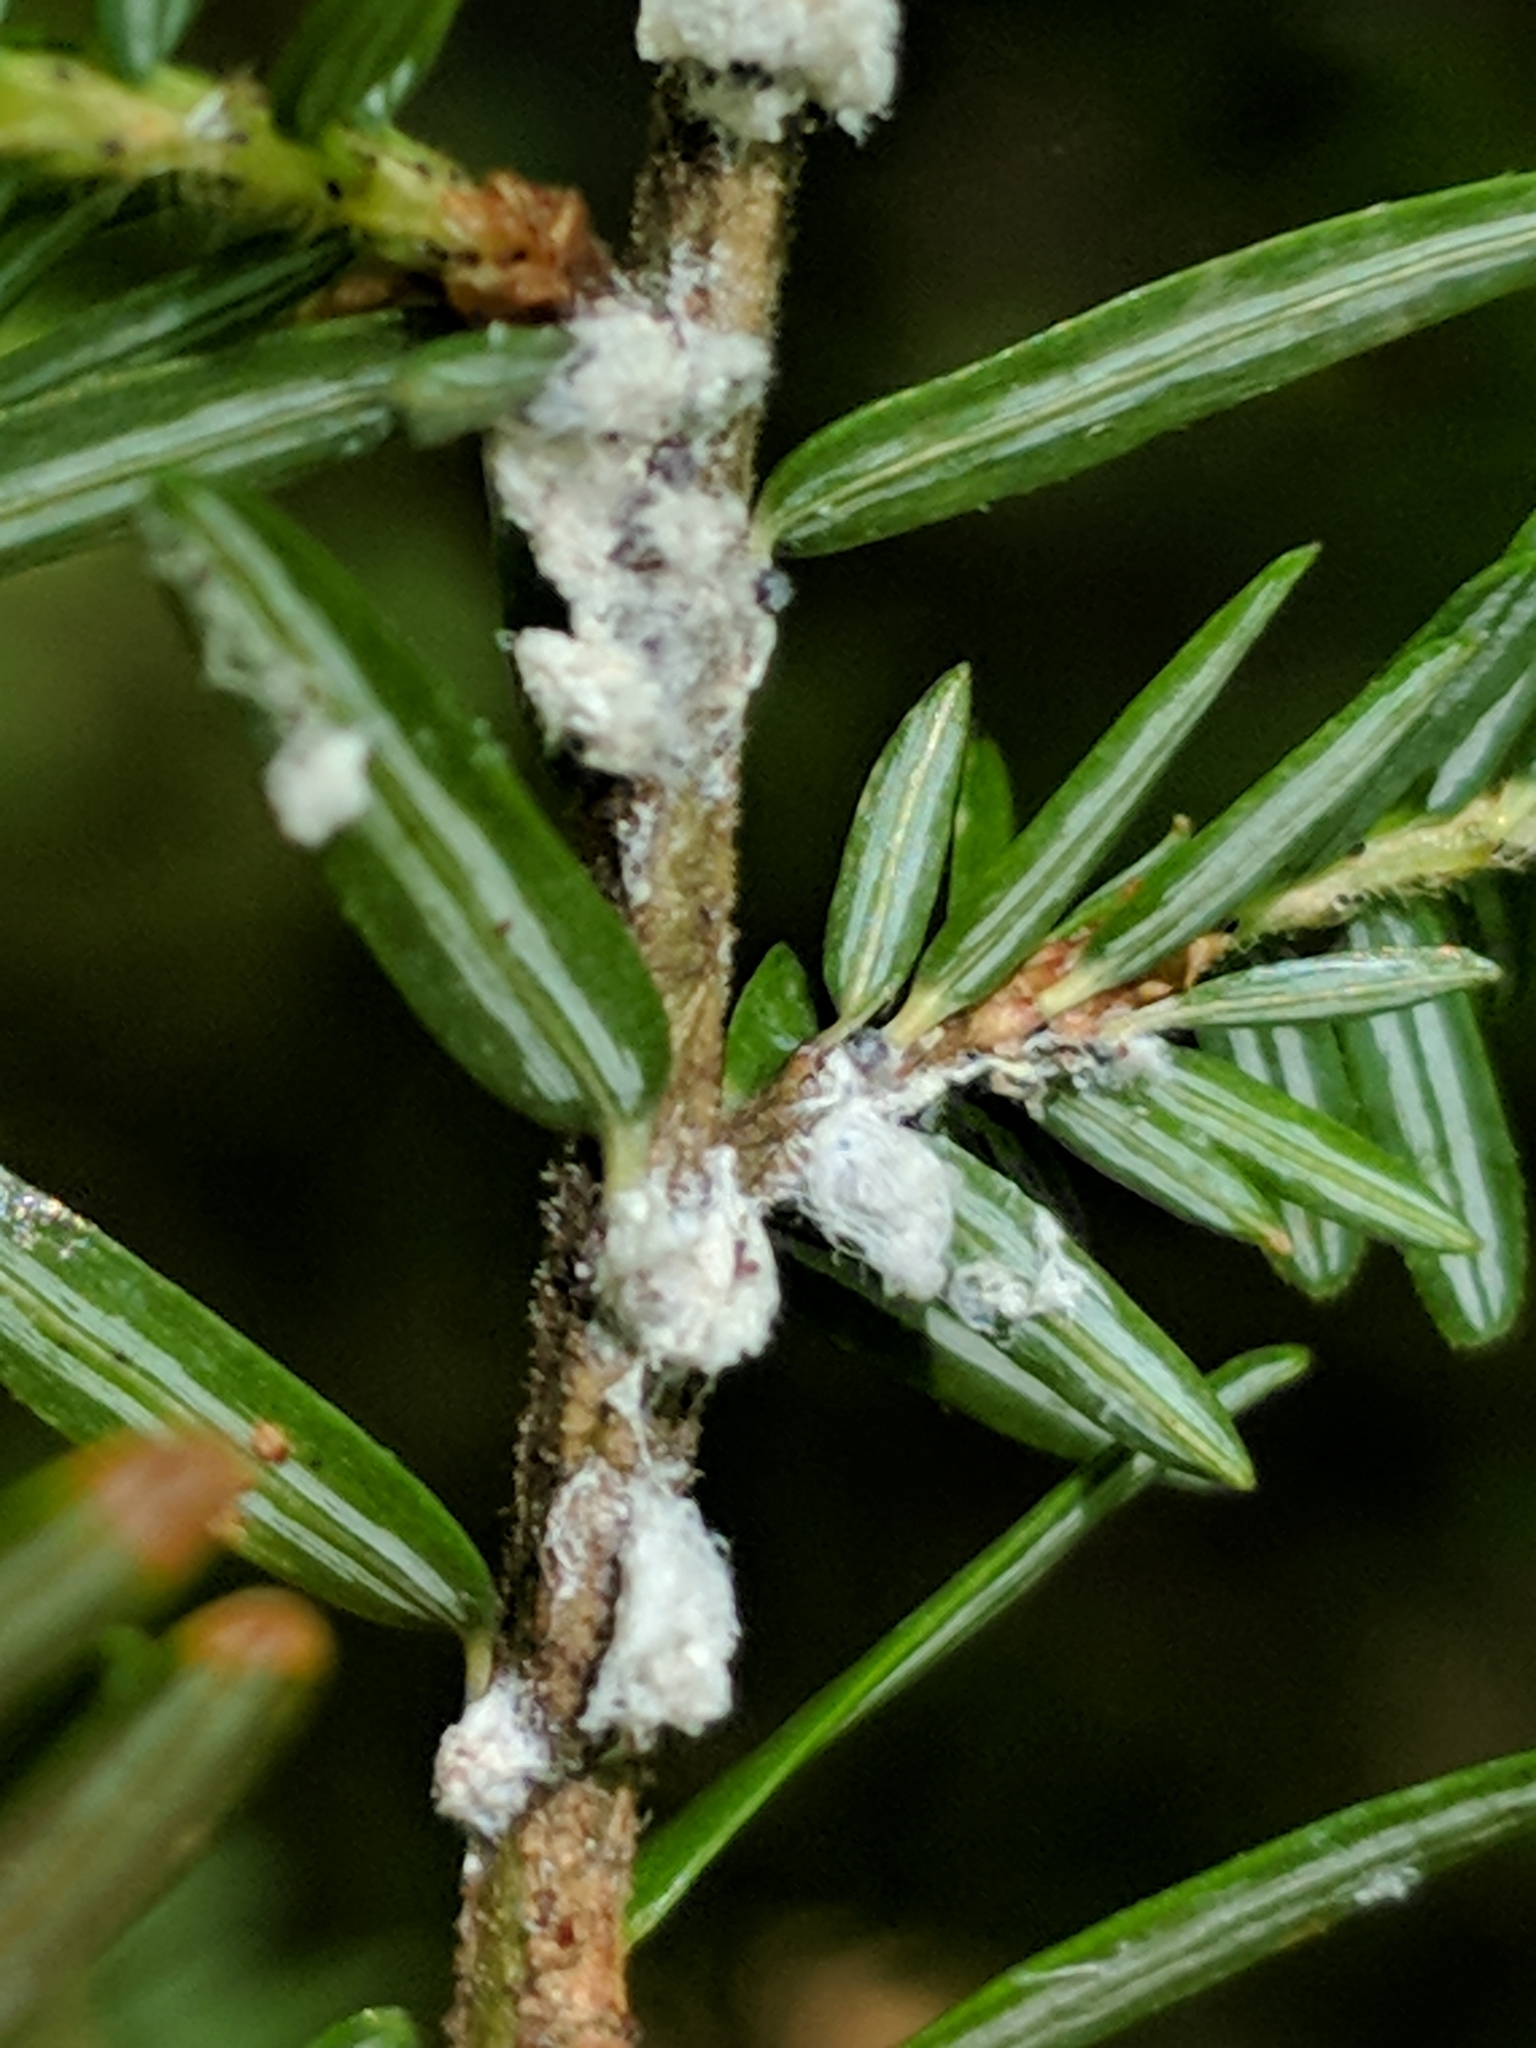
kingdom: Animalia
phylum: Arthropoda
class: Insecta
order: Hemiptera
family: Adelgidae
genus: Adelges
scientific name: Adelges tsugae
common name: Hemlock woolly adelgid
